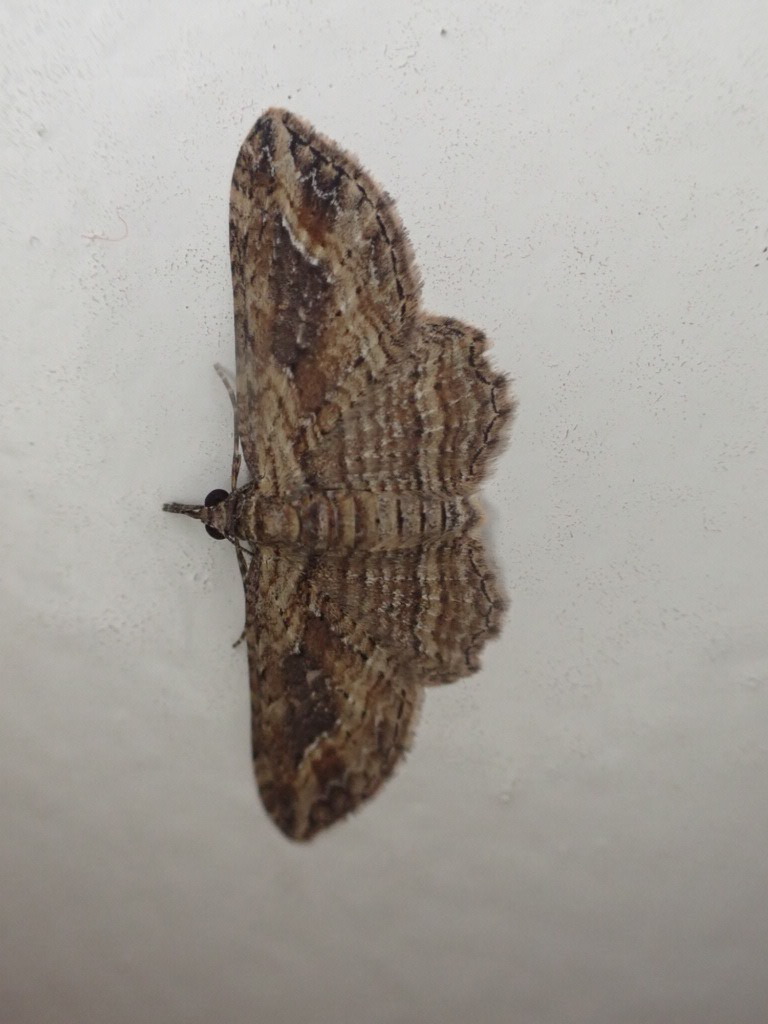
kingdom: Animalia
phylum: Arthropoda
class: Insecta
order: Lepidoptera
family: Geometridae
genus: Chloroclystis
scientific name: Chloroclystis filata
